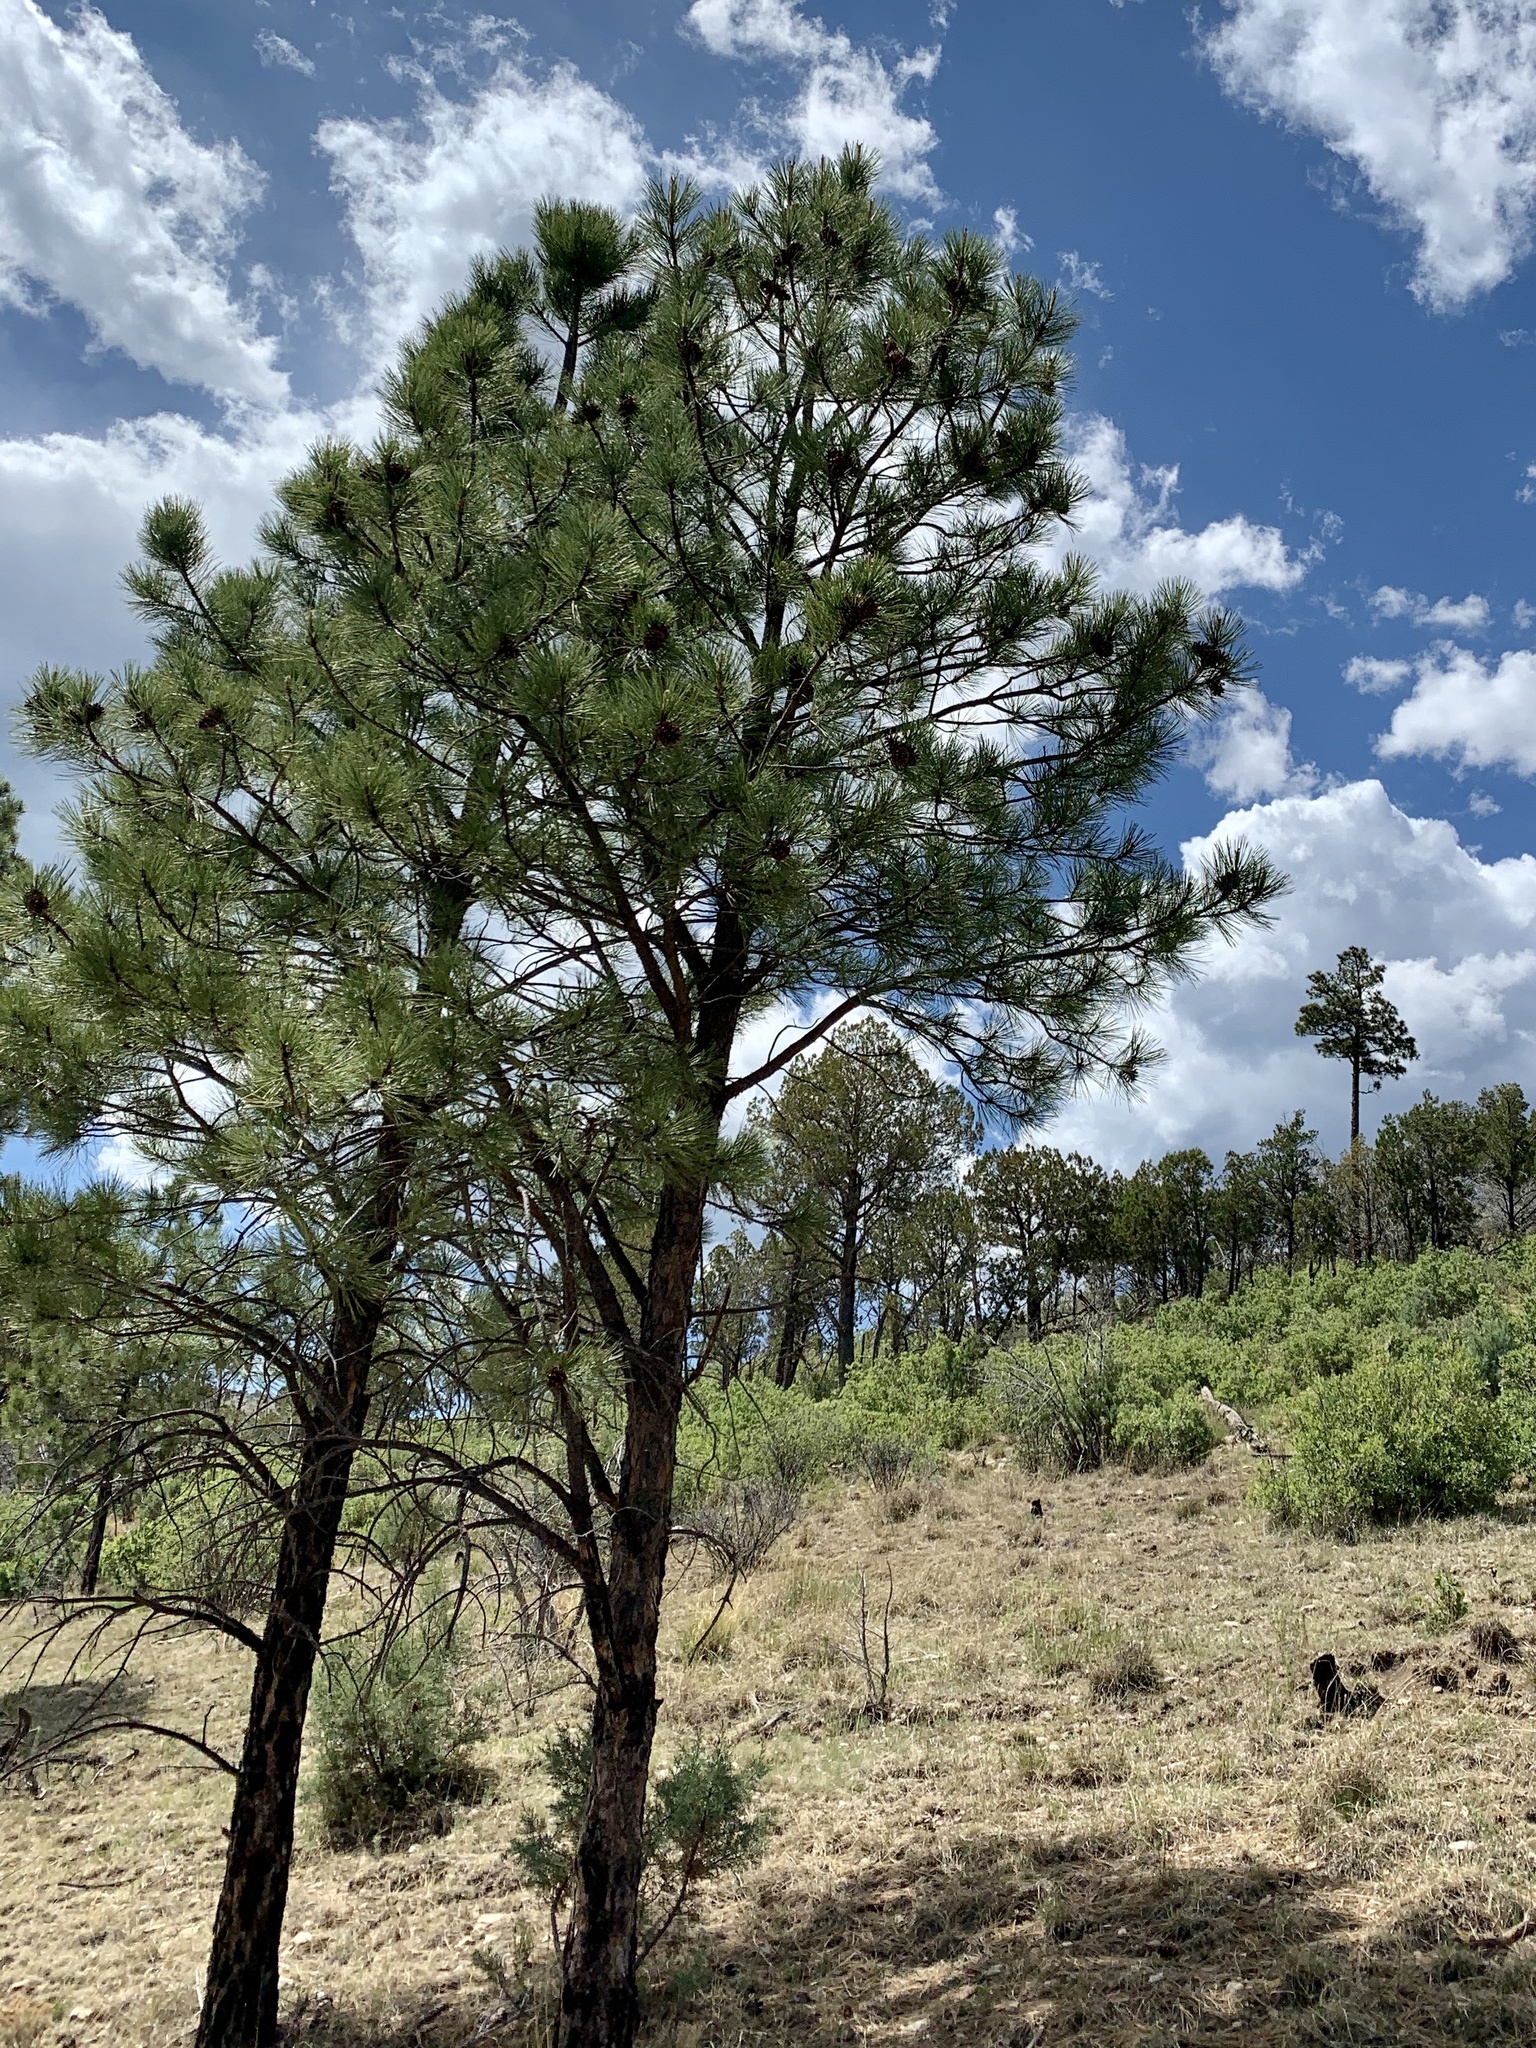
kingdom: Plantae
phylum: Tracheophyta
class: Pinopsida
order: Pinales
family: Pinaceae
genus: Pinus
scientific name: Pinus ponderosa
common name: Western yellow-pine
